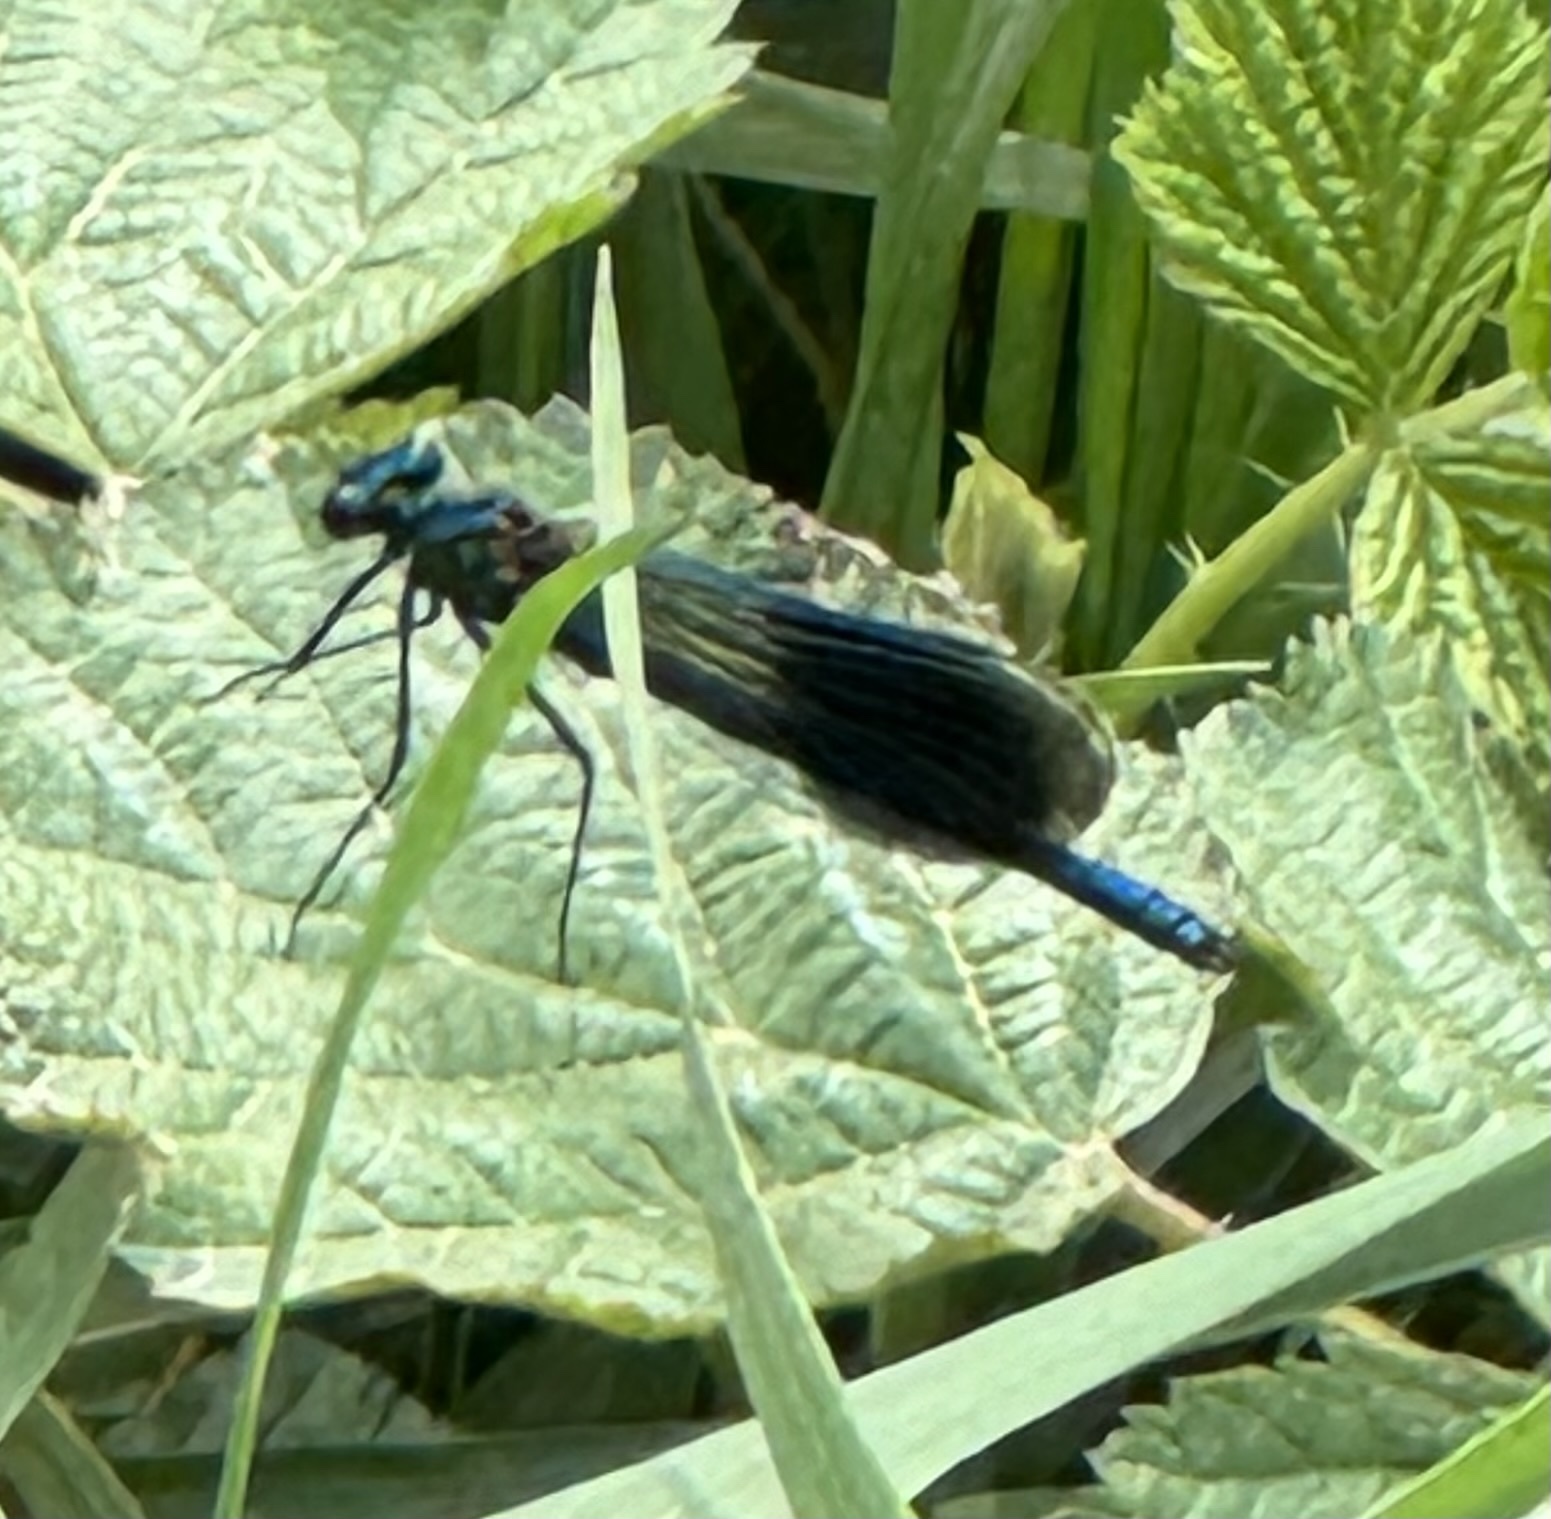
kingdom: Animalia
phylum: Arthropoda
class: Insecta
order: Odonata
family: Calopterygidae
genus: Calopteryx
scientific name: Calopteryx splendens
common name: Banded demoiselle
